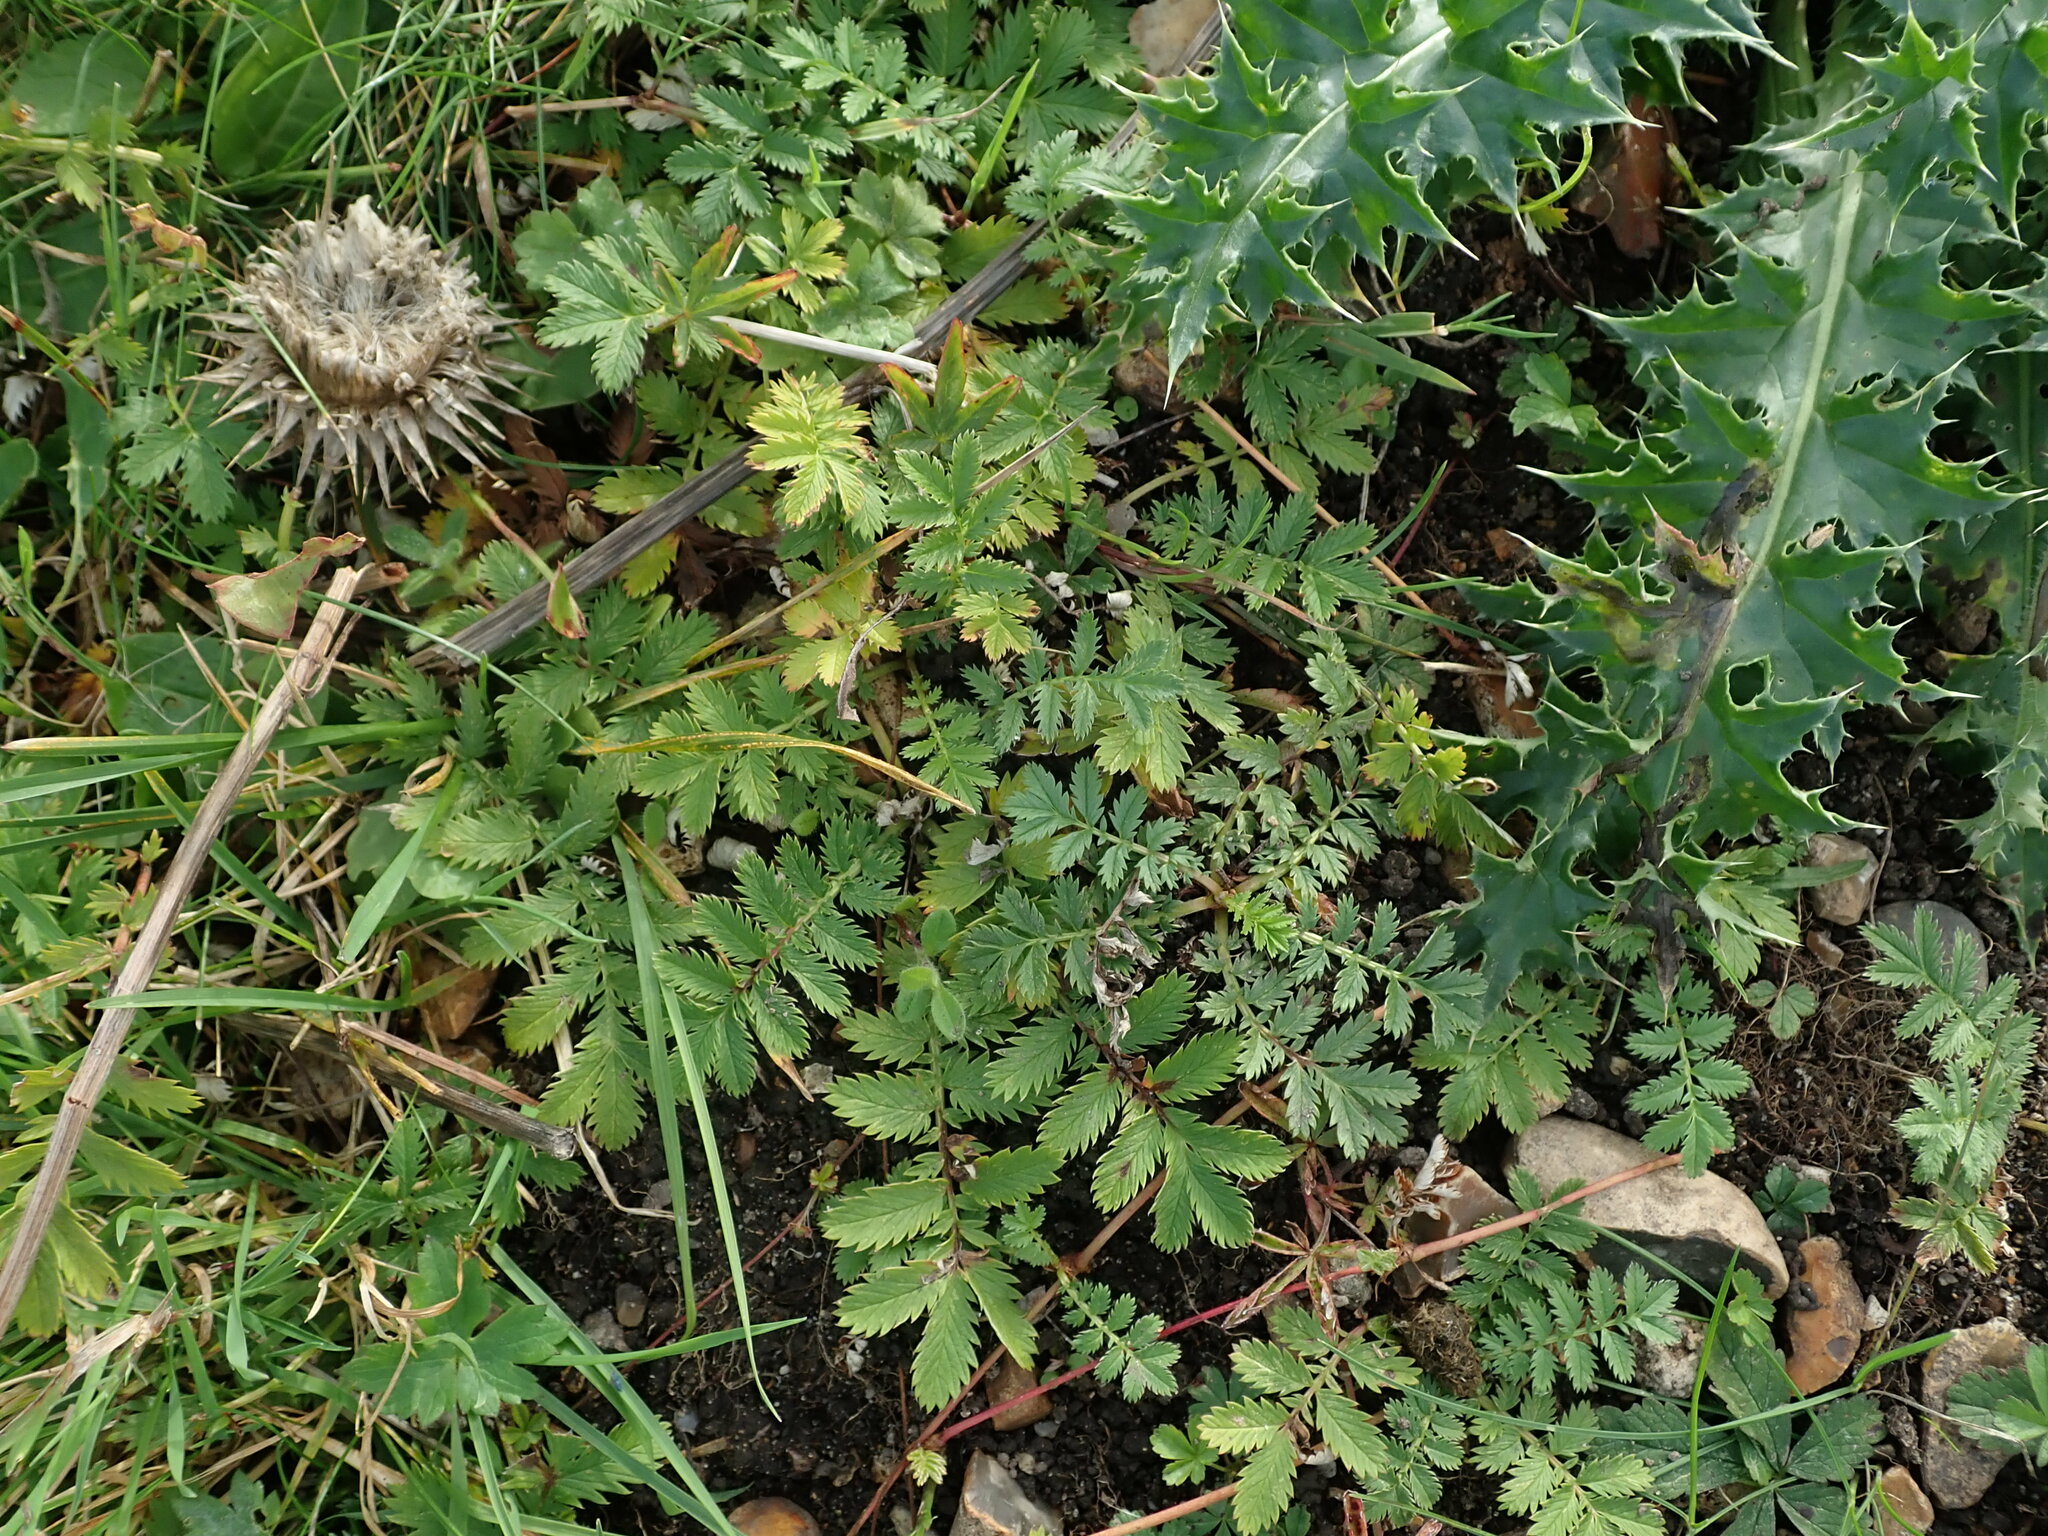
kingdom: Plantae
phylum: Tracheophyta
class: Magnoliopsida
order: Rosales
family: Rosaceae
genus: Argentina
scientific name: Argentina anserina
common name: Common silverweed
